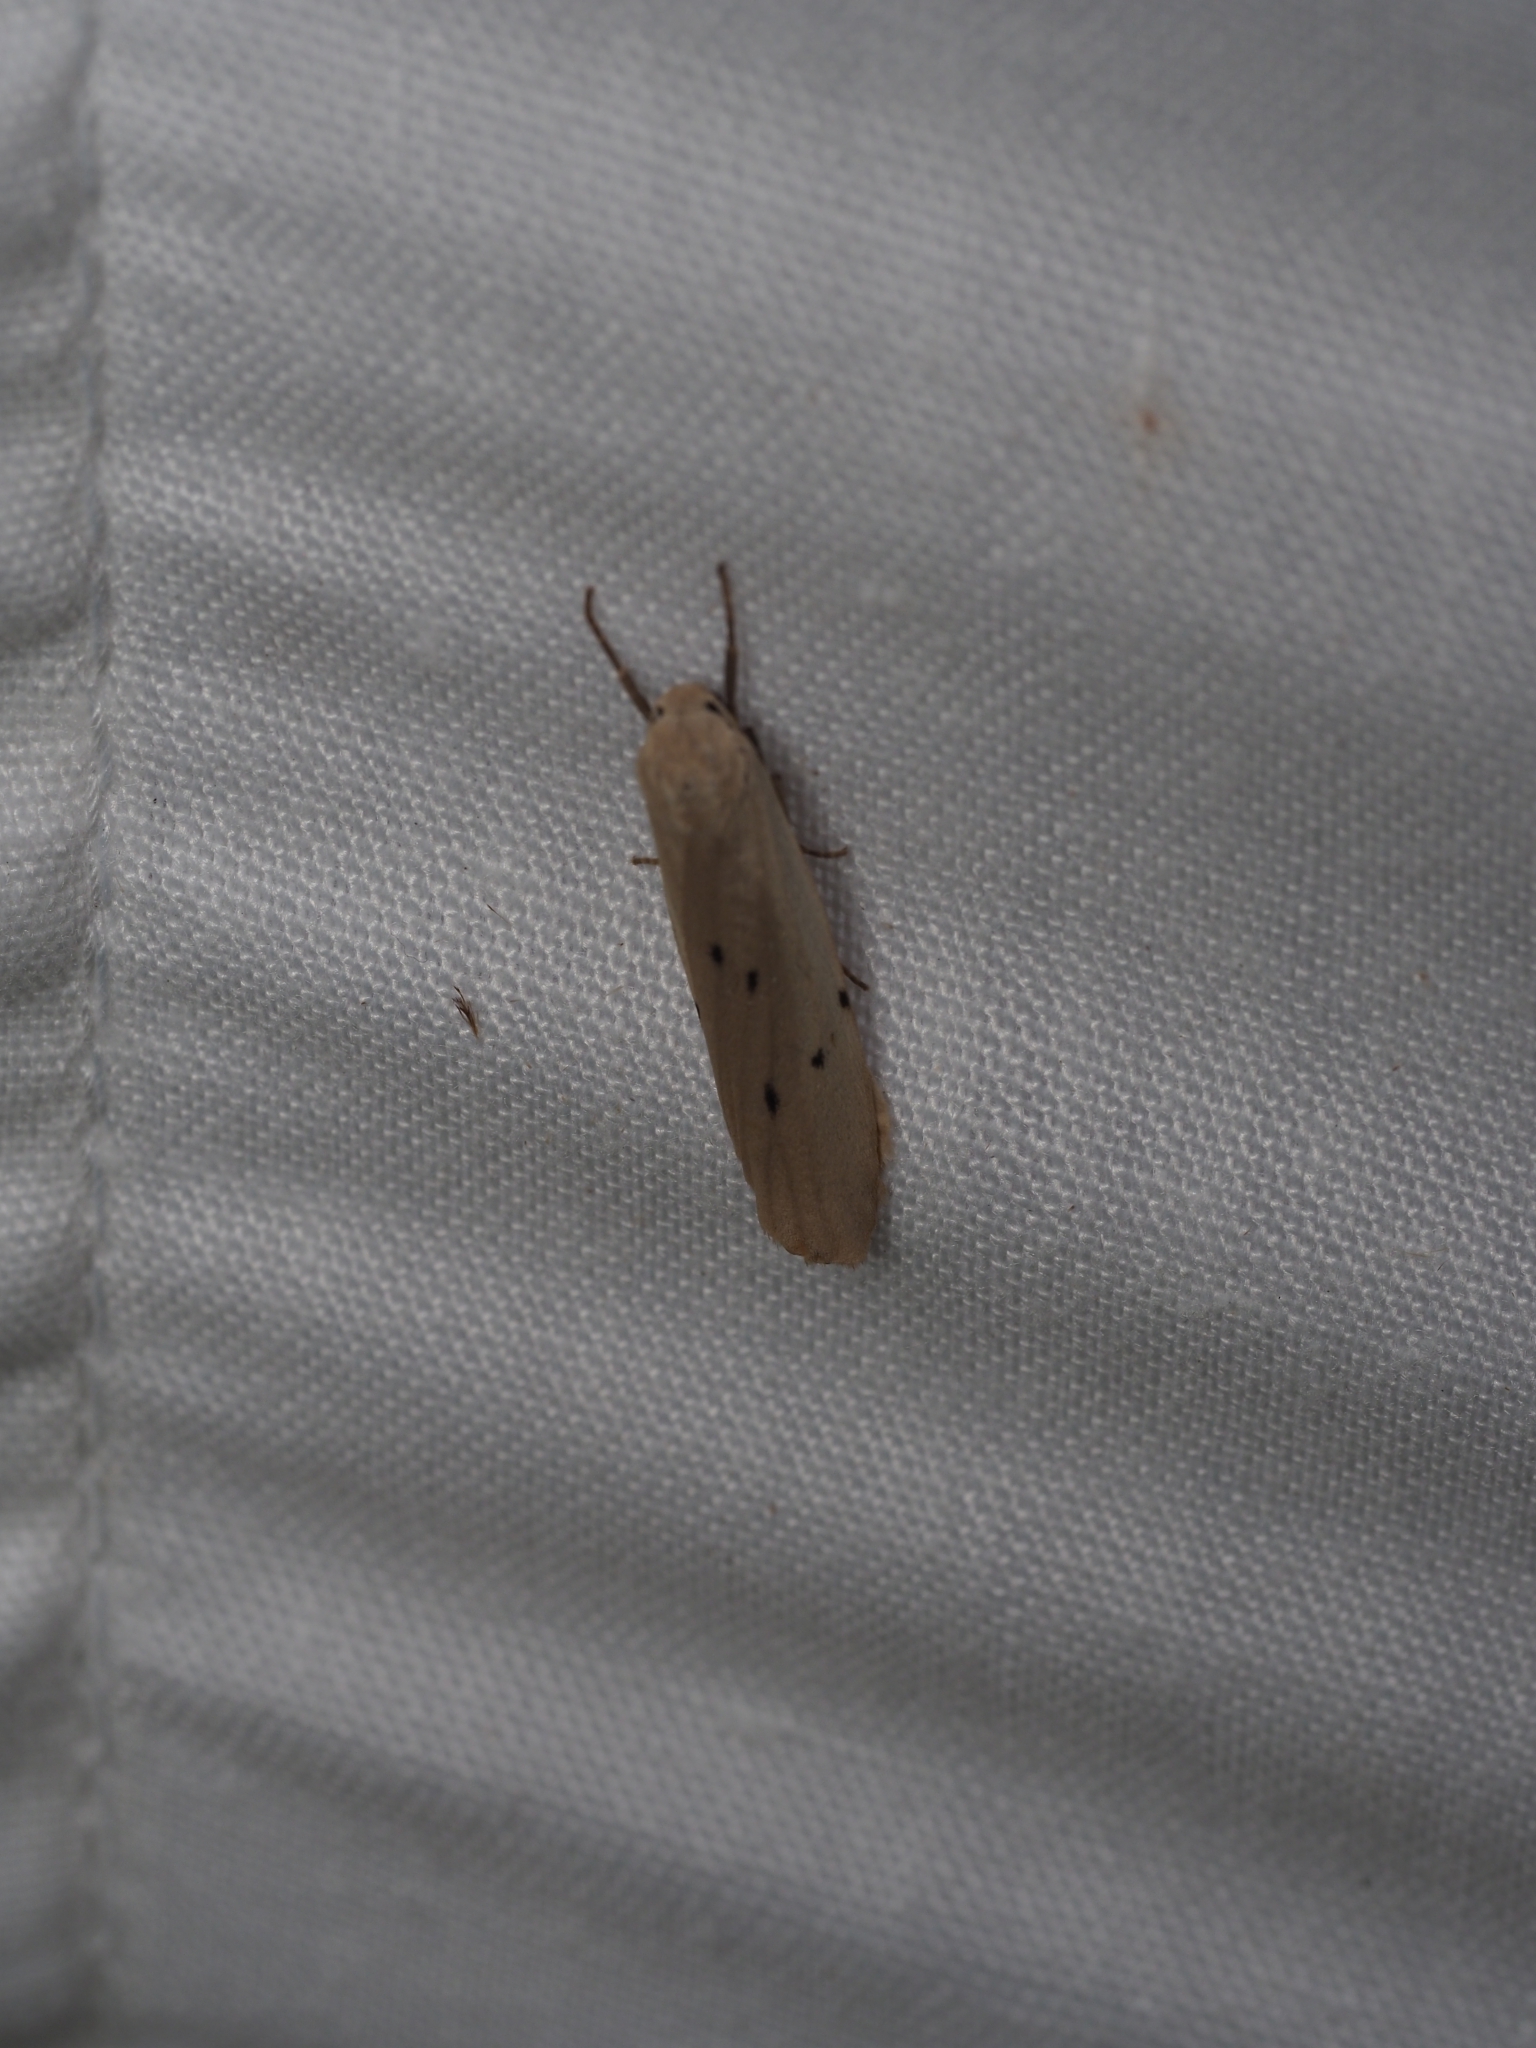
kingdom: Animalia
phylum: Arthropoda
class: Insecta
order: Lepidoptera
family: Erebidae
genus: Pelosia
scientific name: Pelosia muscerda
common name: Dotted footman
